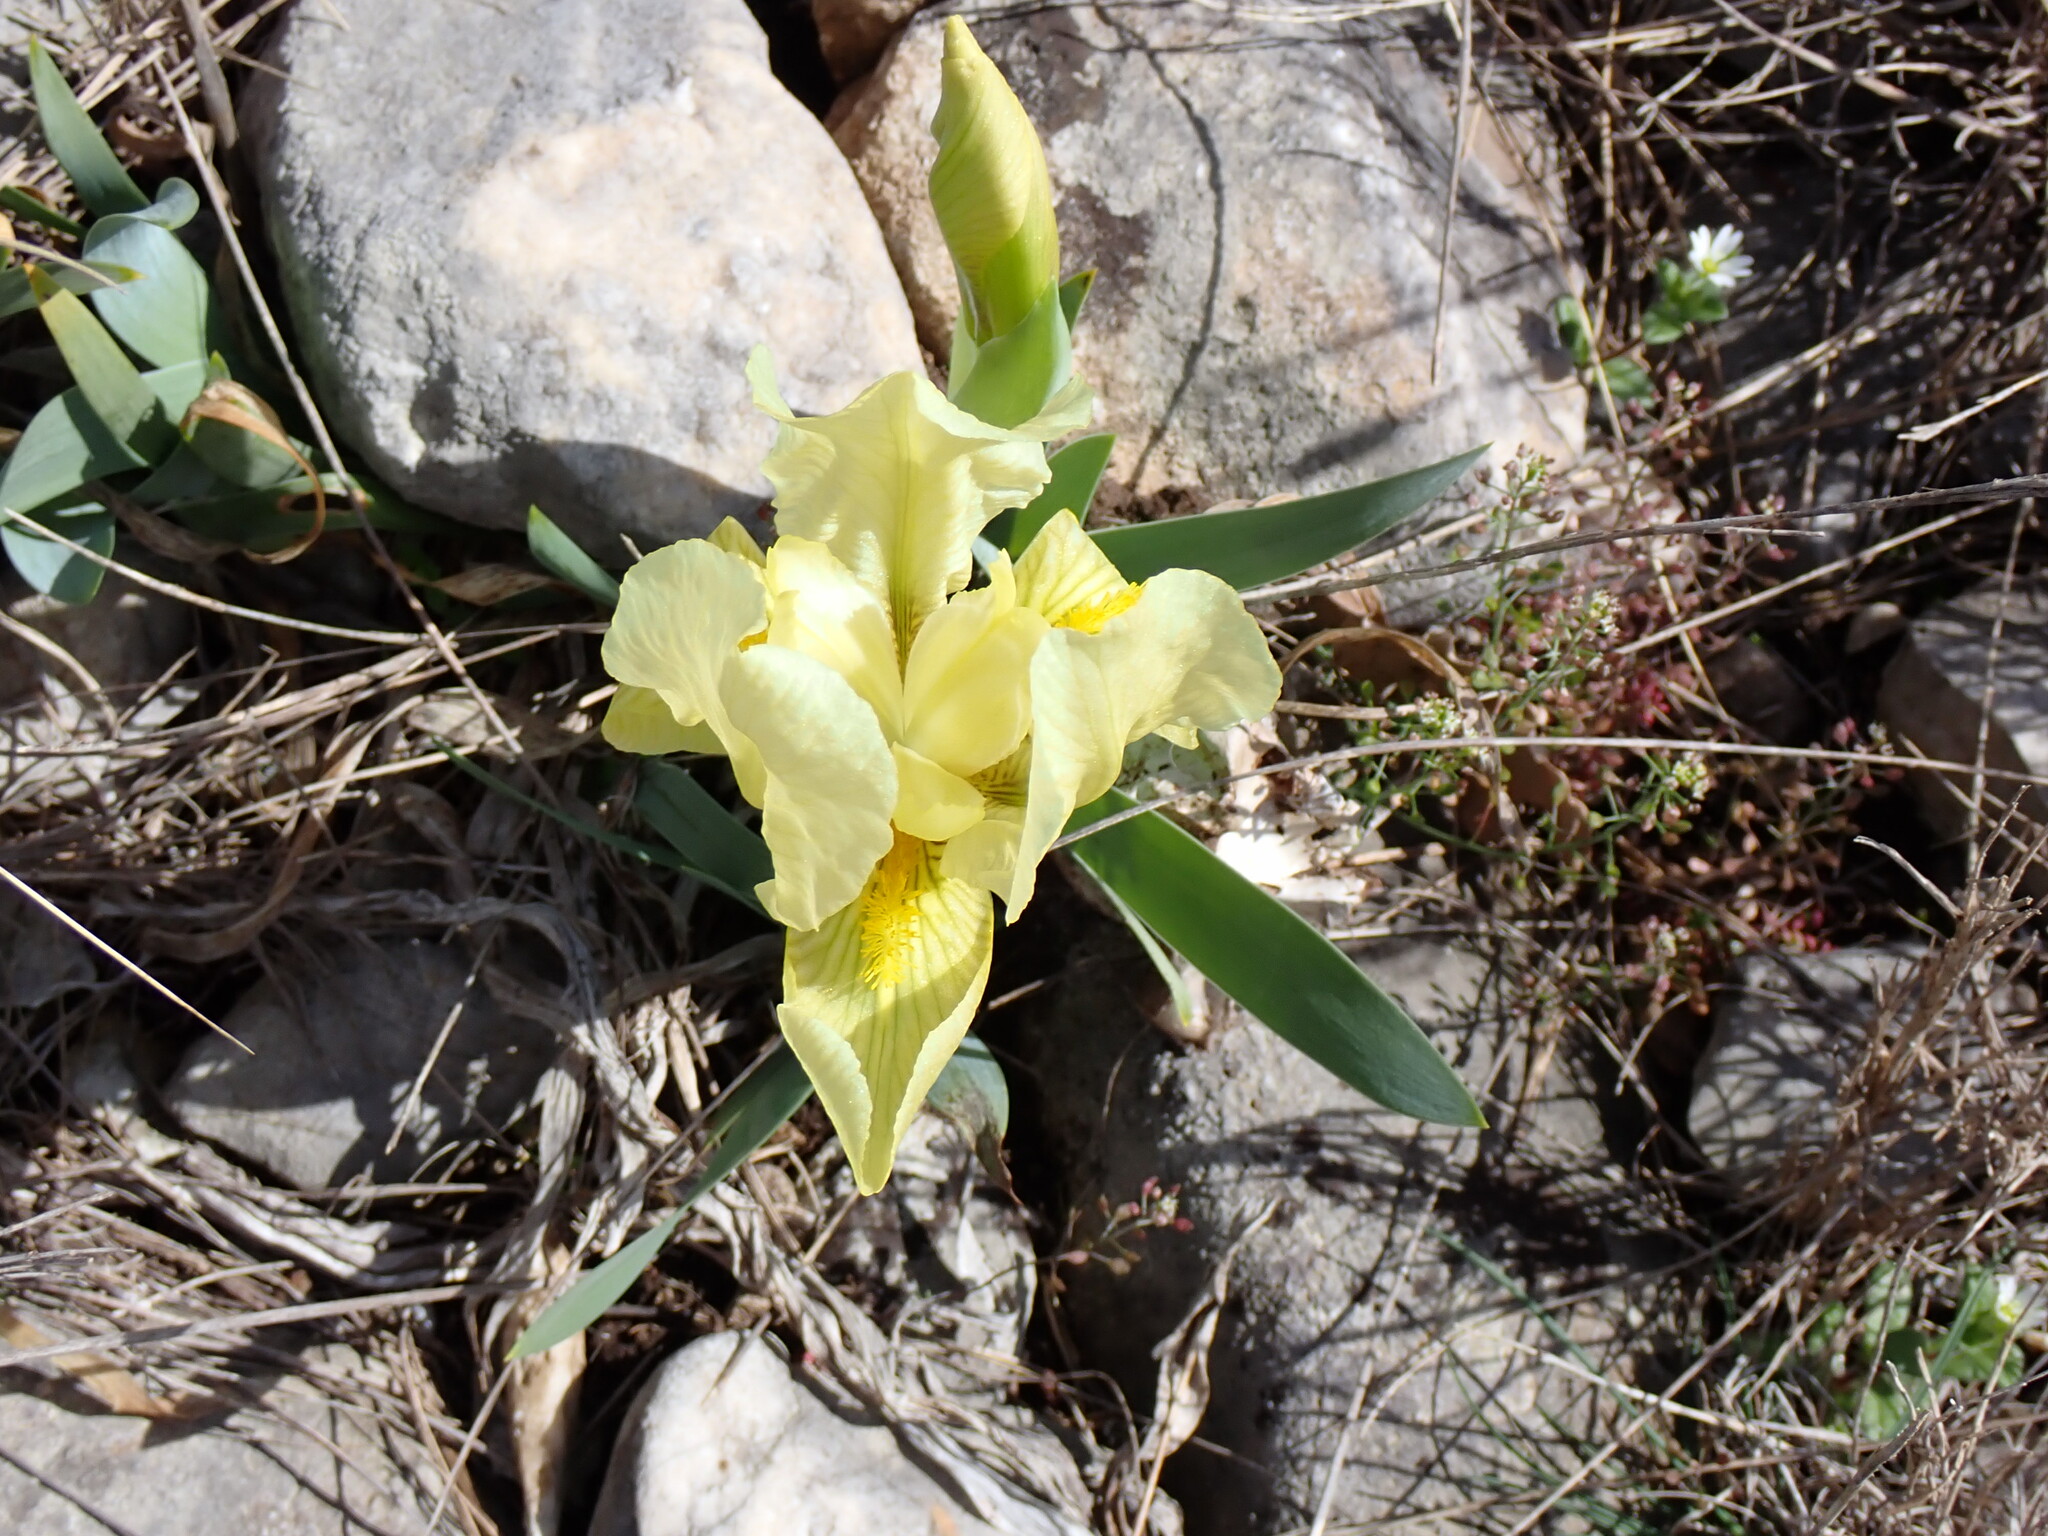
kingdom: Plantae
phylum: Tracheophyta
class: Liliopsida
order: Asparagales
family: Iridaceae
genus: Iris
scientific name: Iris lutescens
